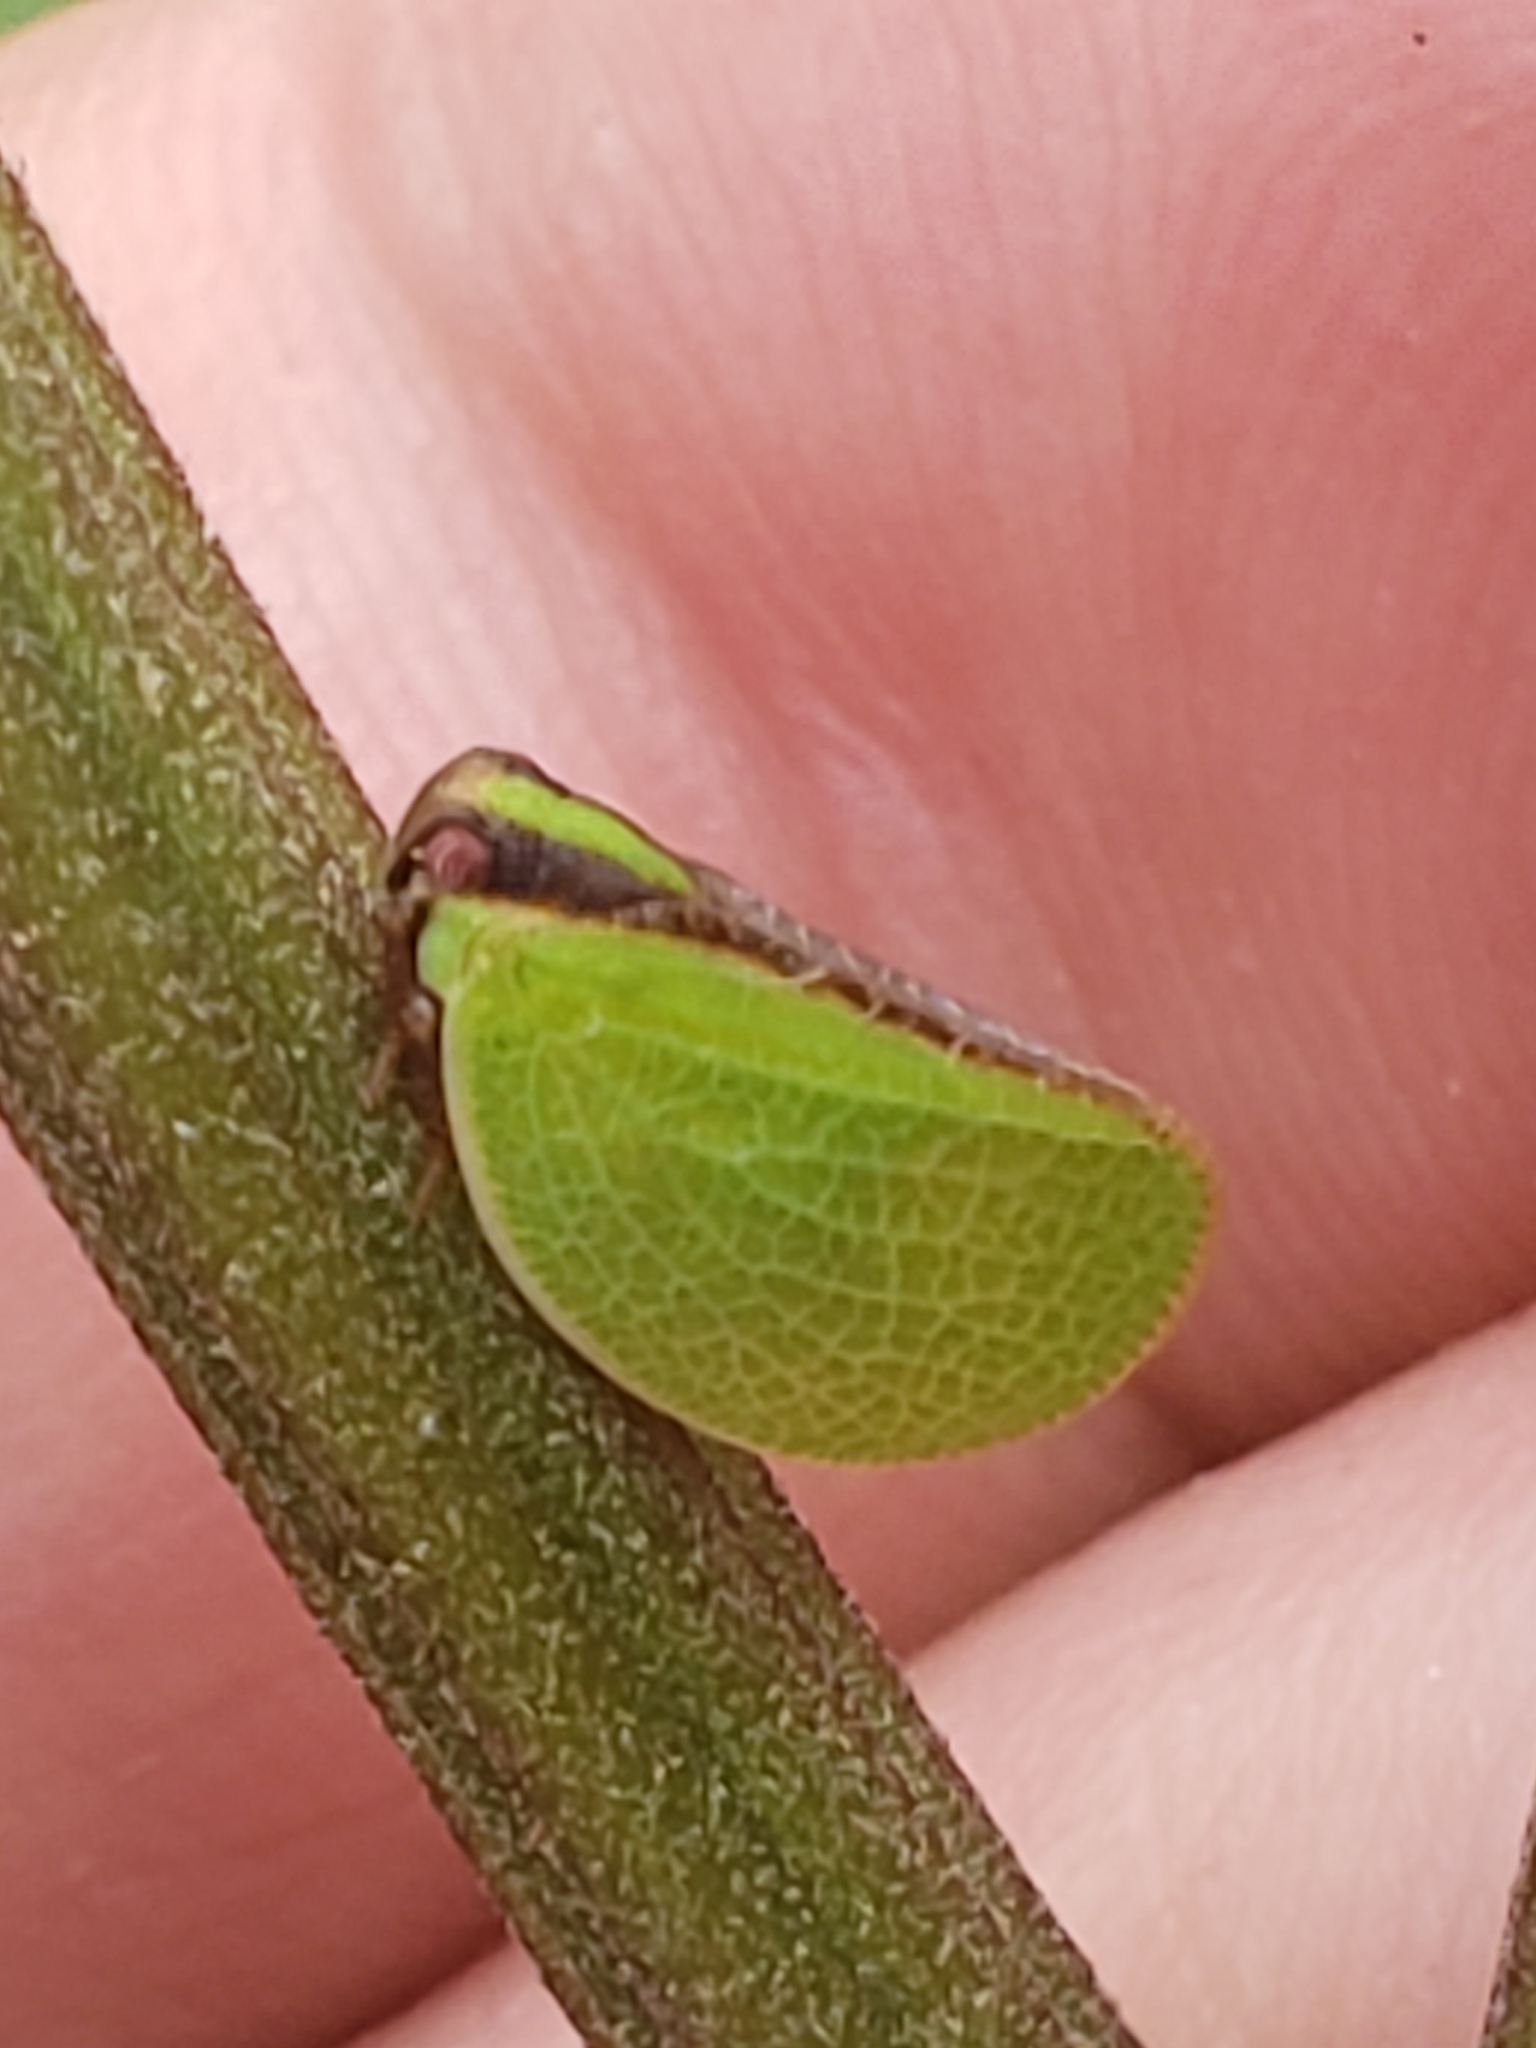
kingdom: Animalia
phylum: Arthropoda
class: Insecta
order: Hemiptera
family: Acanaloniidae
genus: Acanalonia
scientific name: Acanalonia bivittata
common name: Two-striped planthopper
